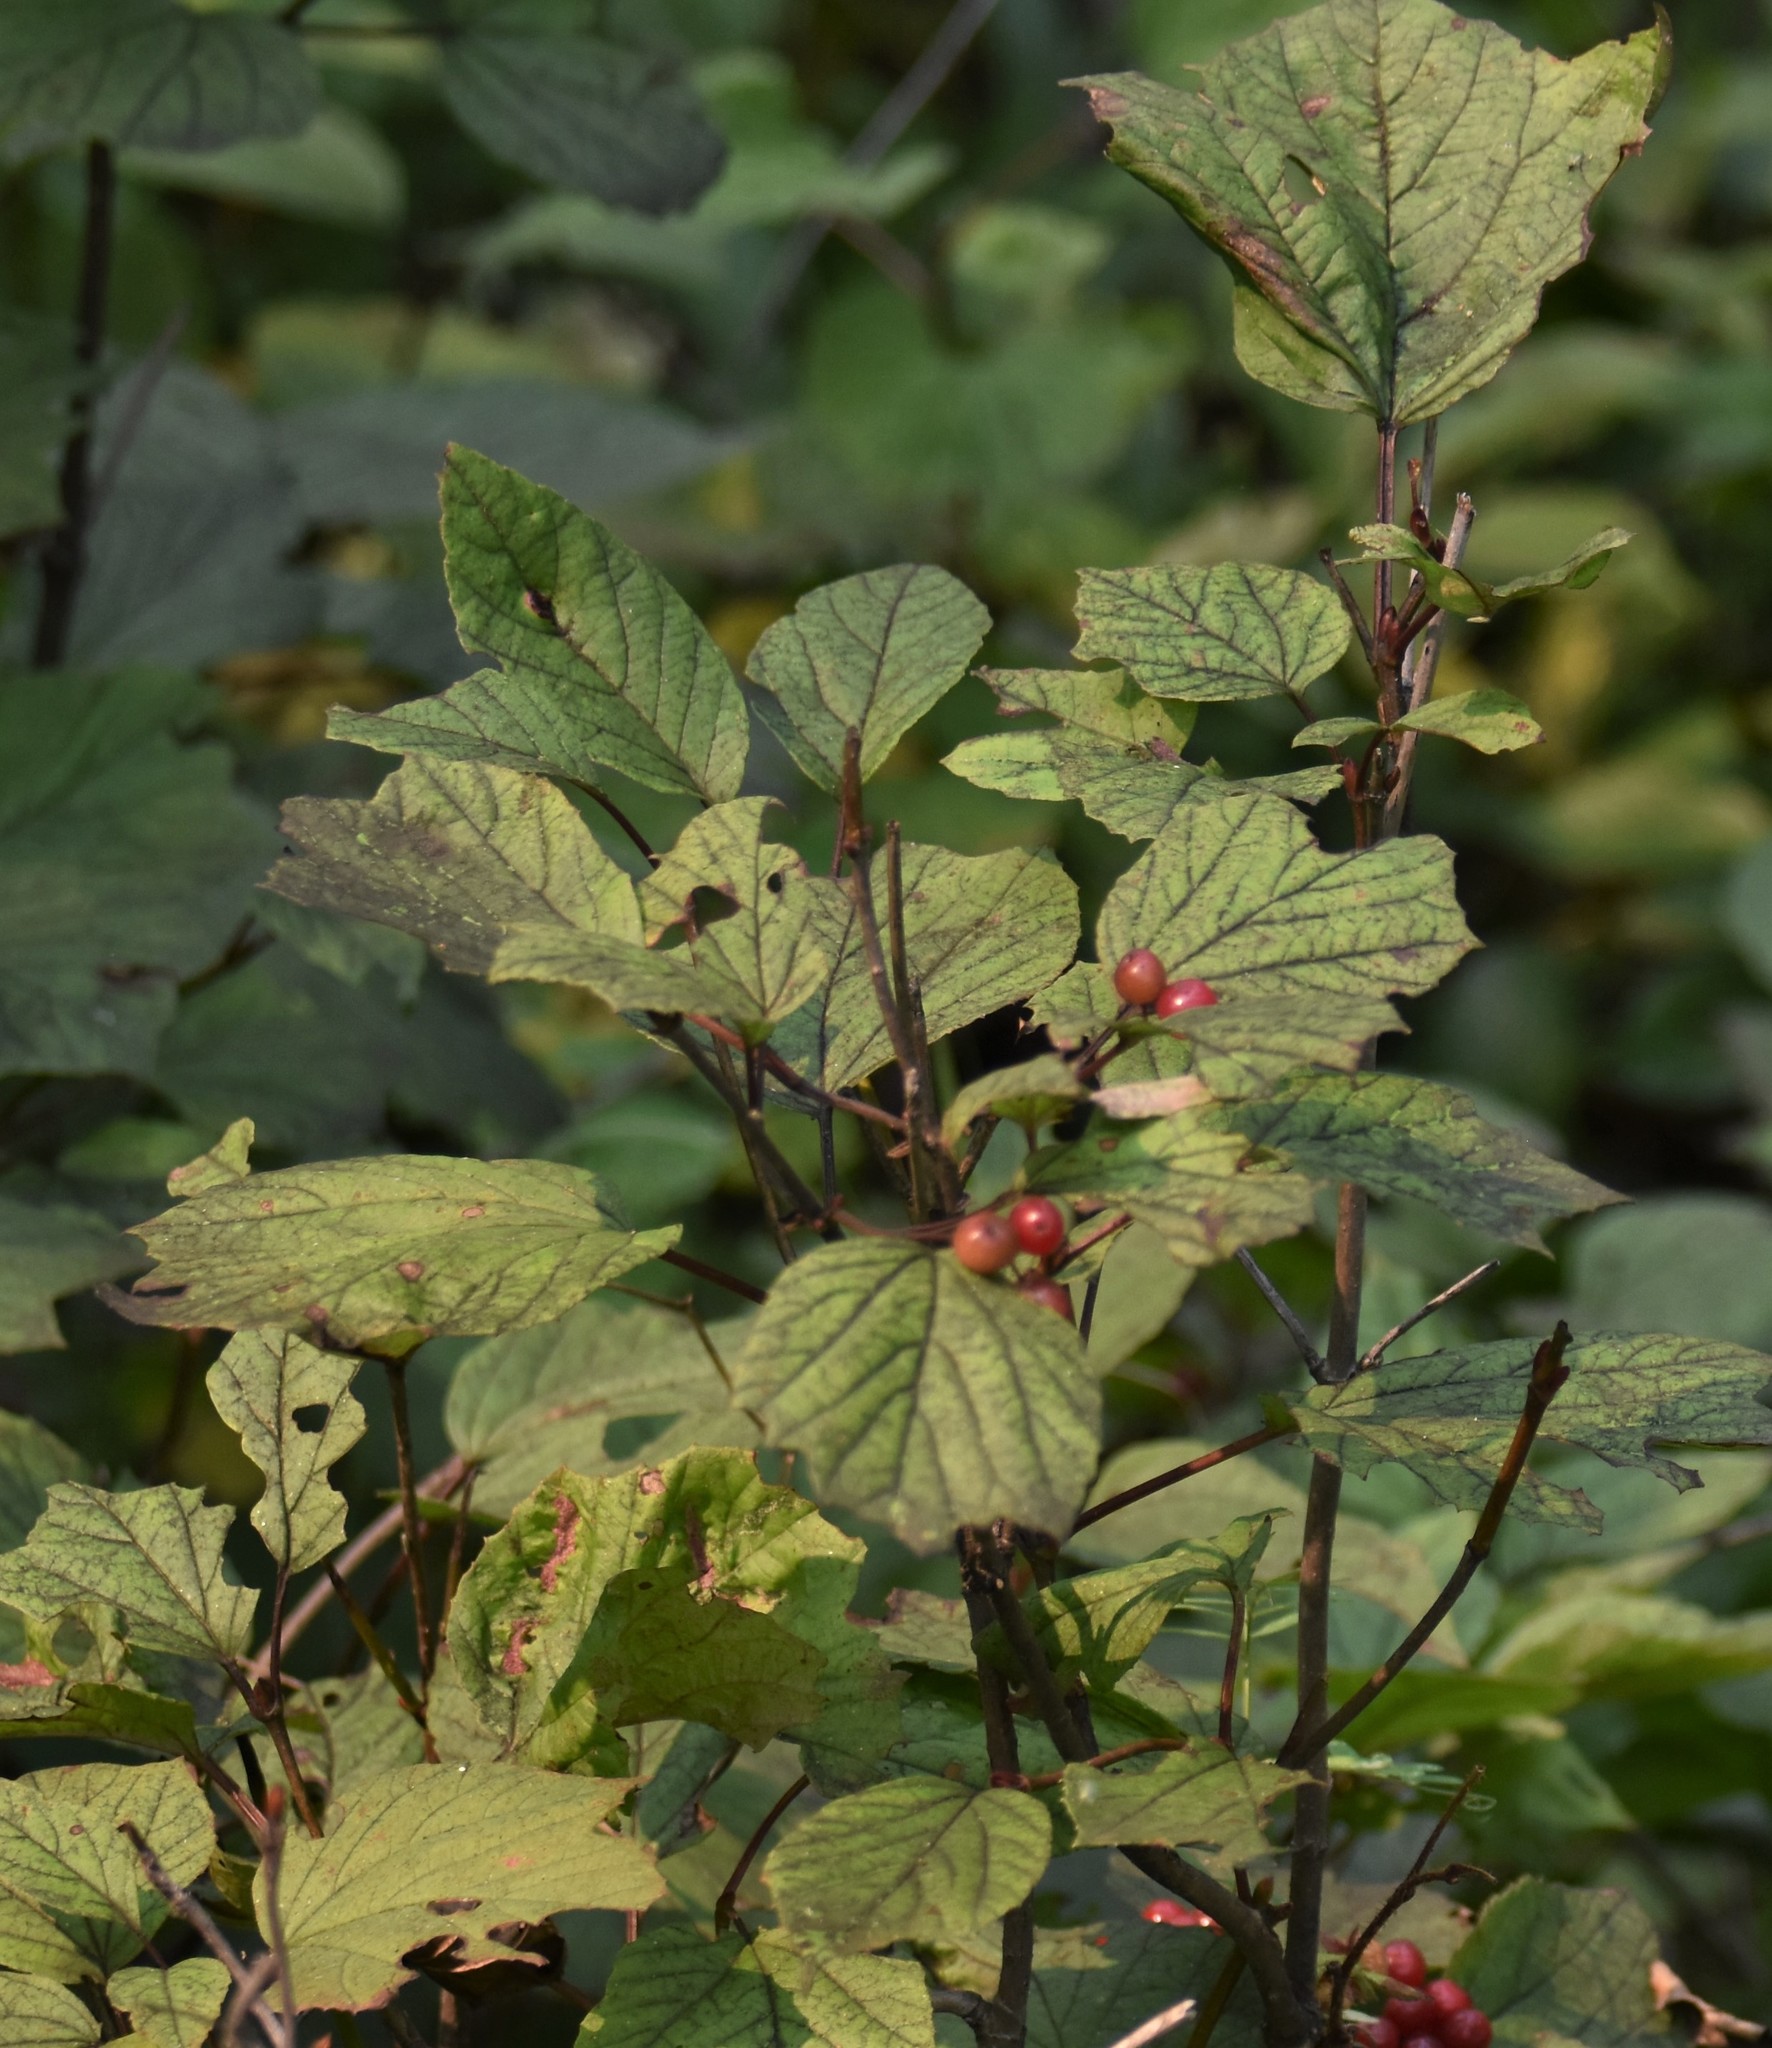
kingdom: Plantae
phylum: Tracheophyta
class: Magnoliopsida
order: Dipsacales
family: Viburnaceae
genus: Viburnum
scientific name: Viburnum edule
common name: Mooseberry
